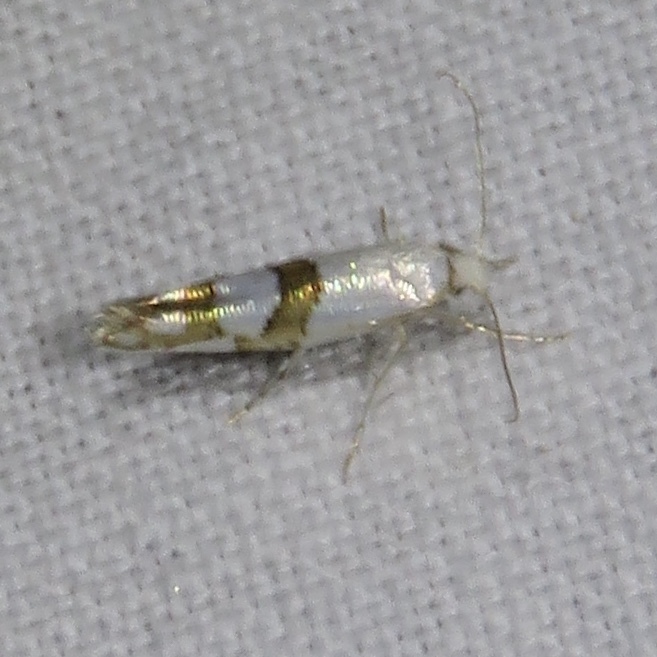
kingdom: Animalia
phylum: Arthropoda
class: Insecta
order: Lepidoptera
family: Argyresthiidae
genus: Argyresthia
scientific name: Argyresthia oreasella
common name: Cherry shoot borer moth
